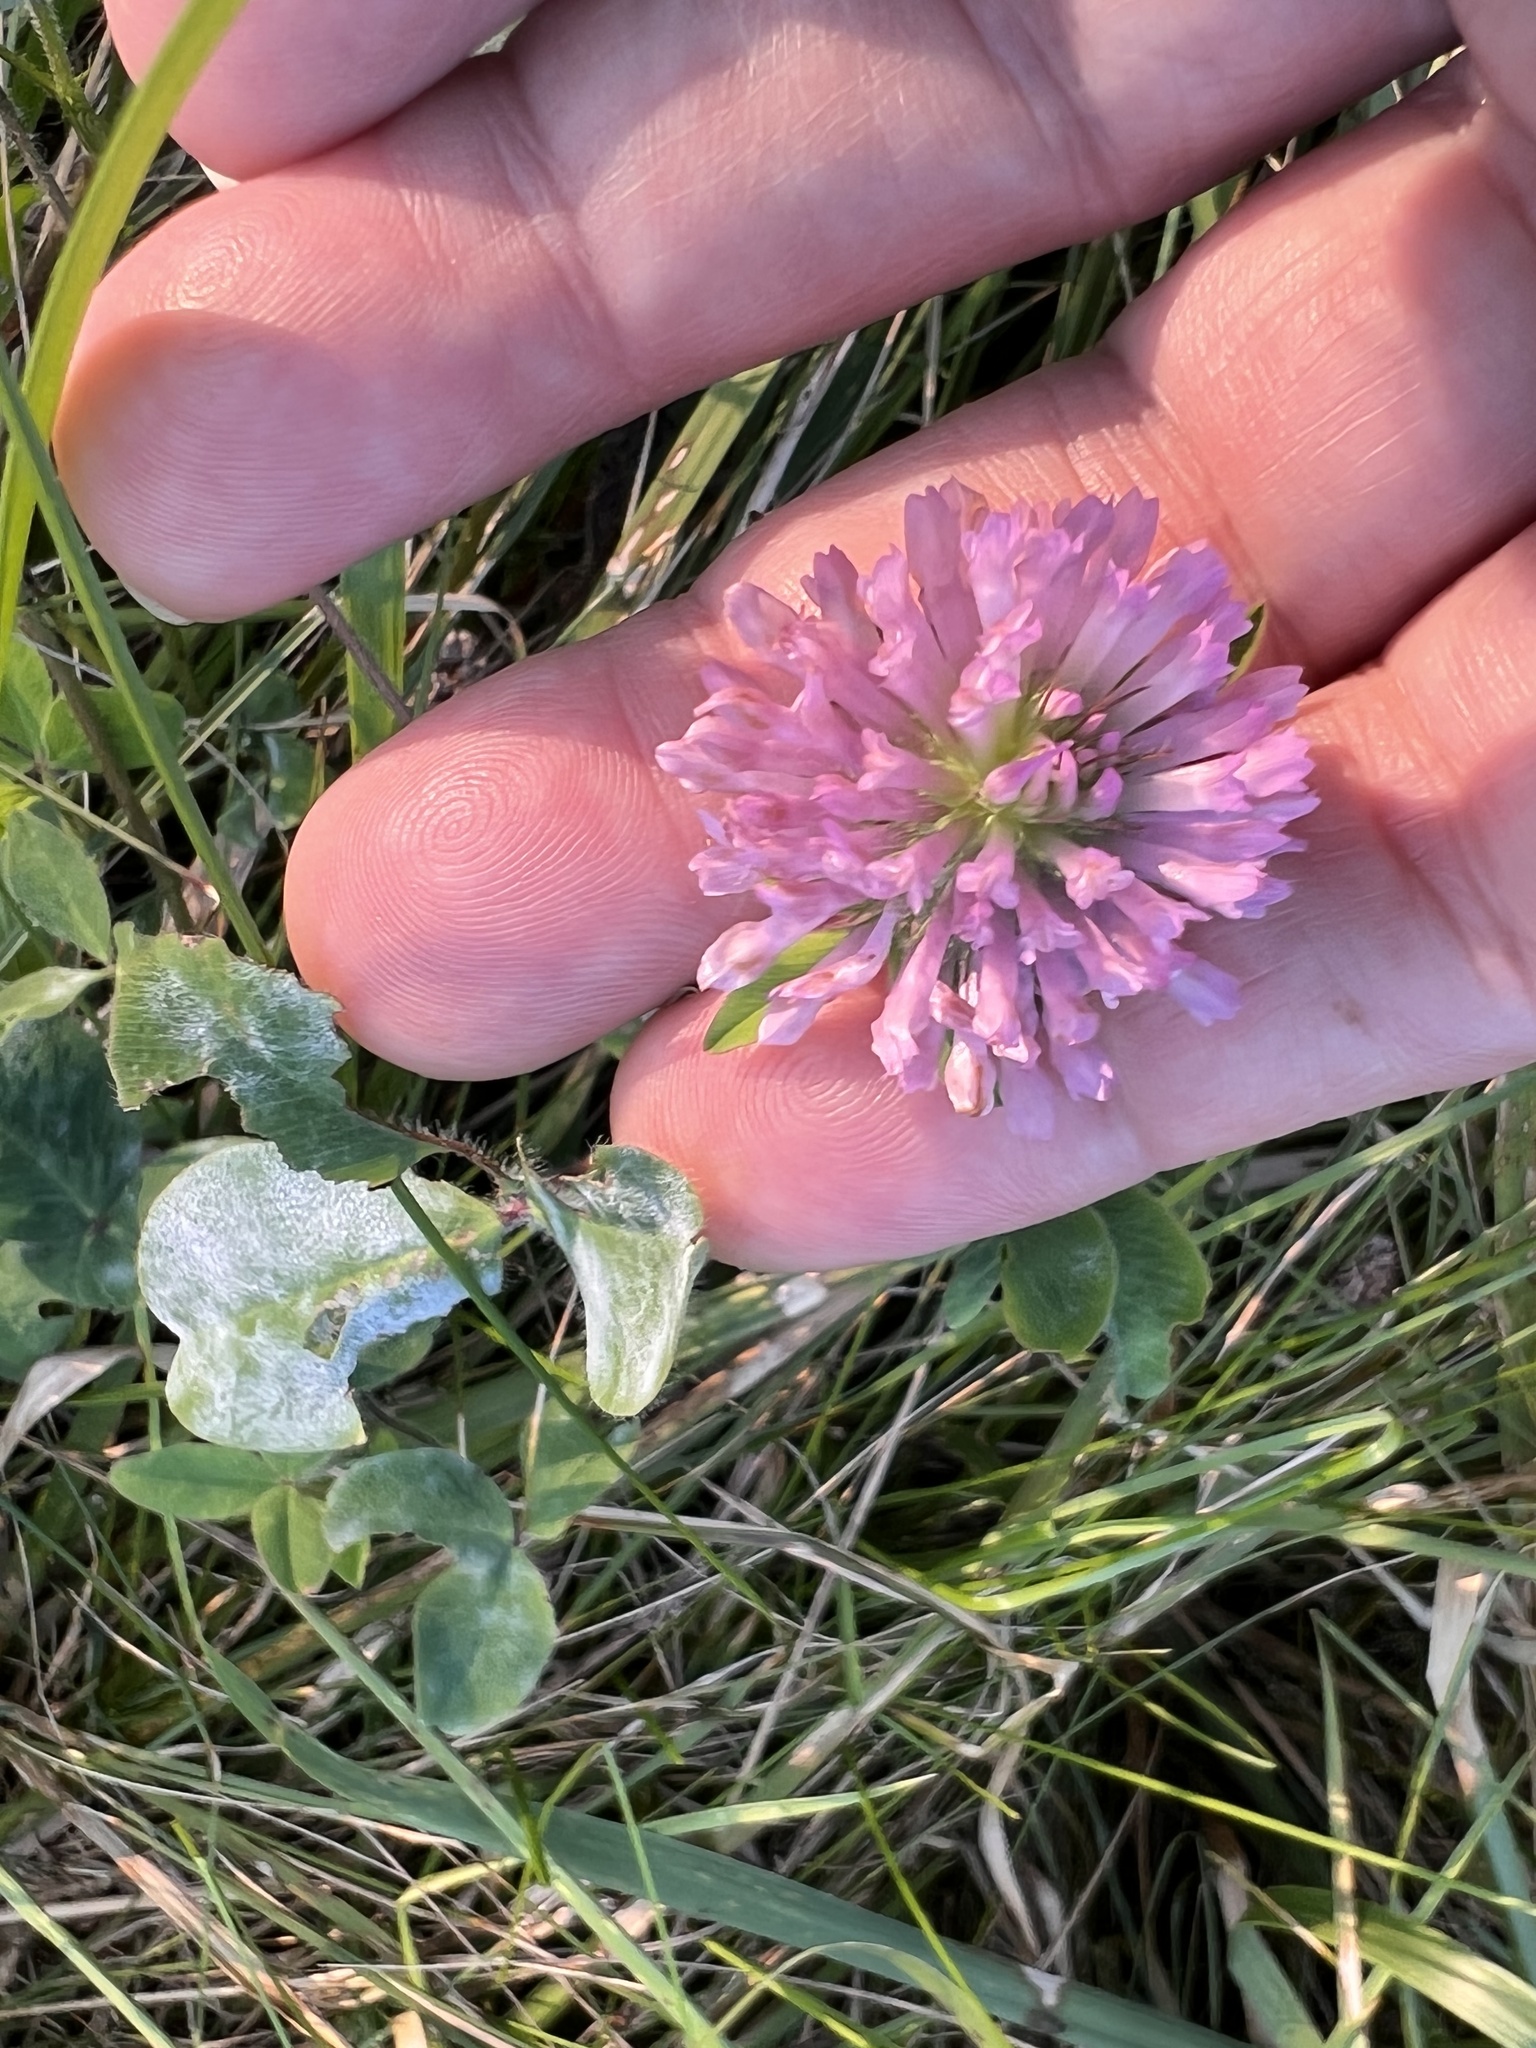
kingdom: Fungi
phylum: Ascomycota
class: Leotiomycetes
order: Helotiales
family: Erysiphaceae
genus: Erysiphe
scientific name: Erysiphe trifoliorum
